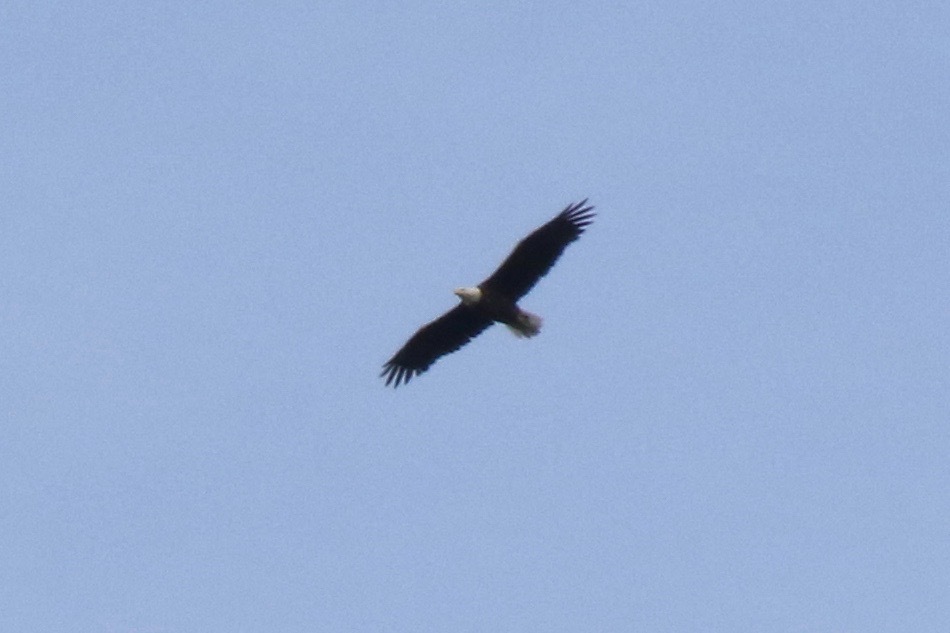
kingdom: Animalia
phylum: Chordata
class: Aves
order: Accipitriformes
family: Accipitridae
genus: Haliaeetus
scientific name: Haliaeetus leucocephalus
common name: Bald eagle
